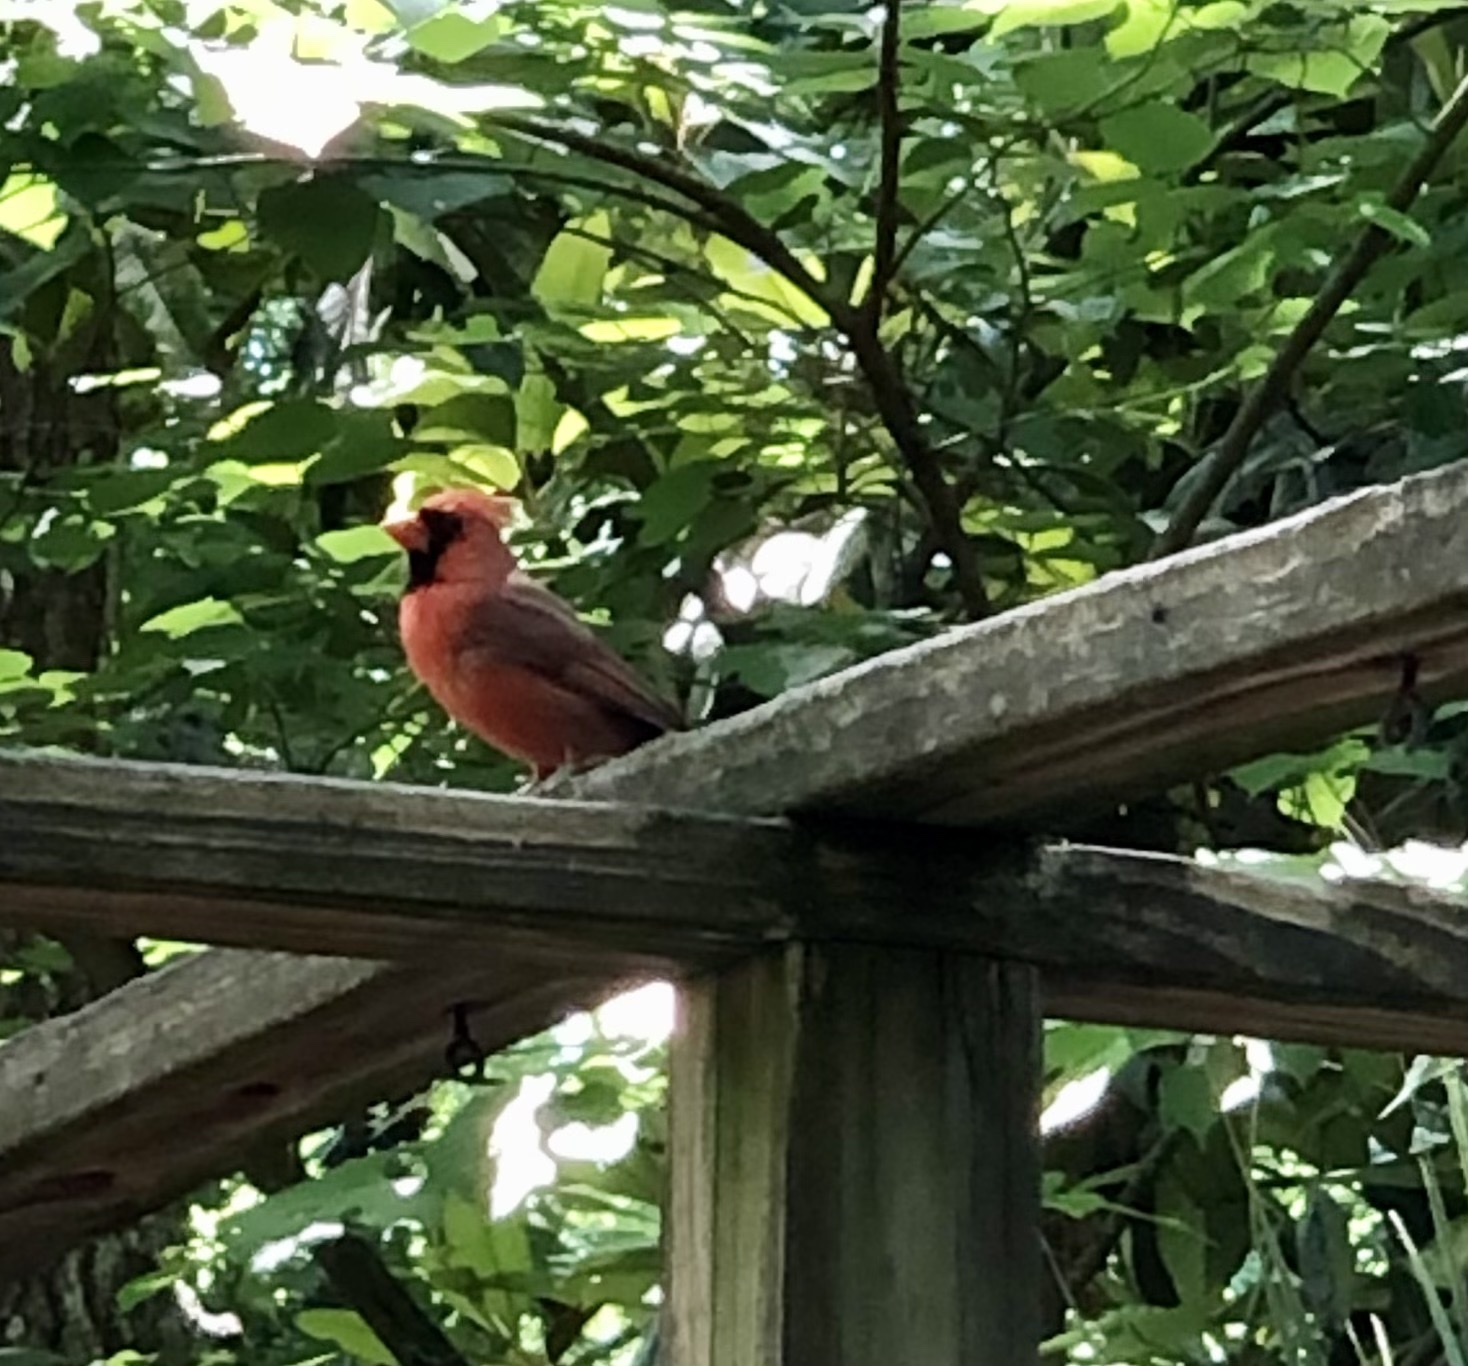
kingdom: Animalia
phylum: Chordata
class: Aves
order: Passeriformes
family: Cardinalidae
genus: Cardinalis
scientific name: Cardinalis cardinalis
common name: Northern cardinal
